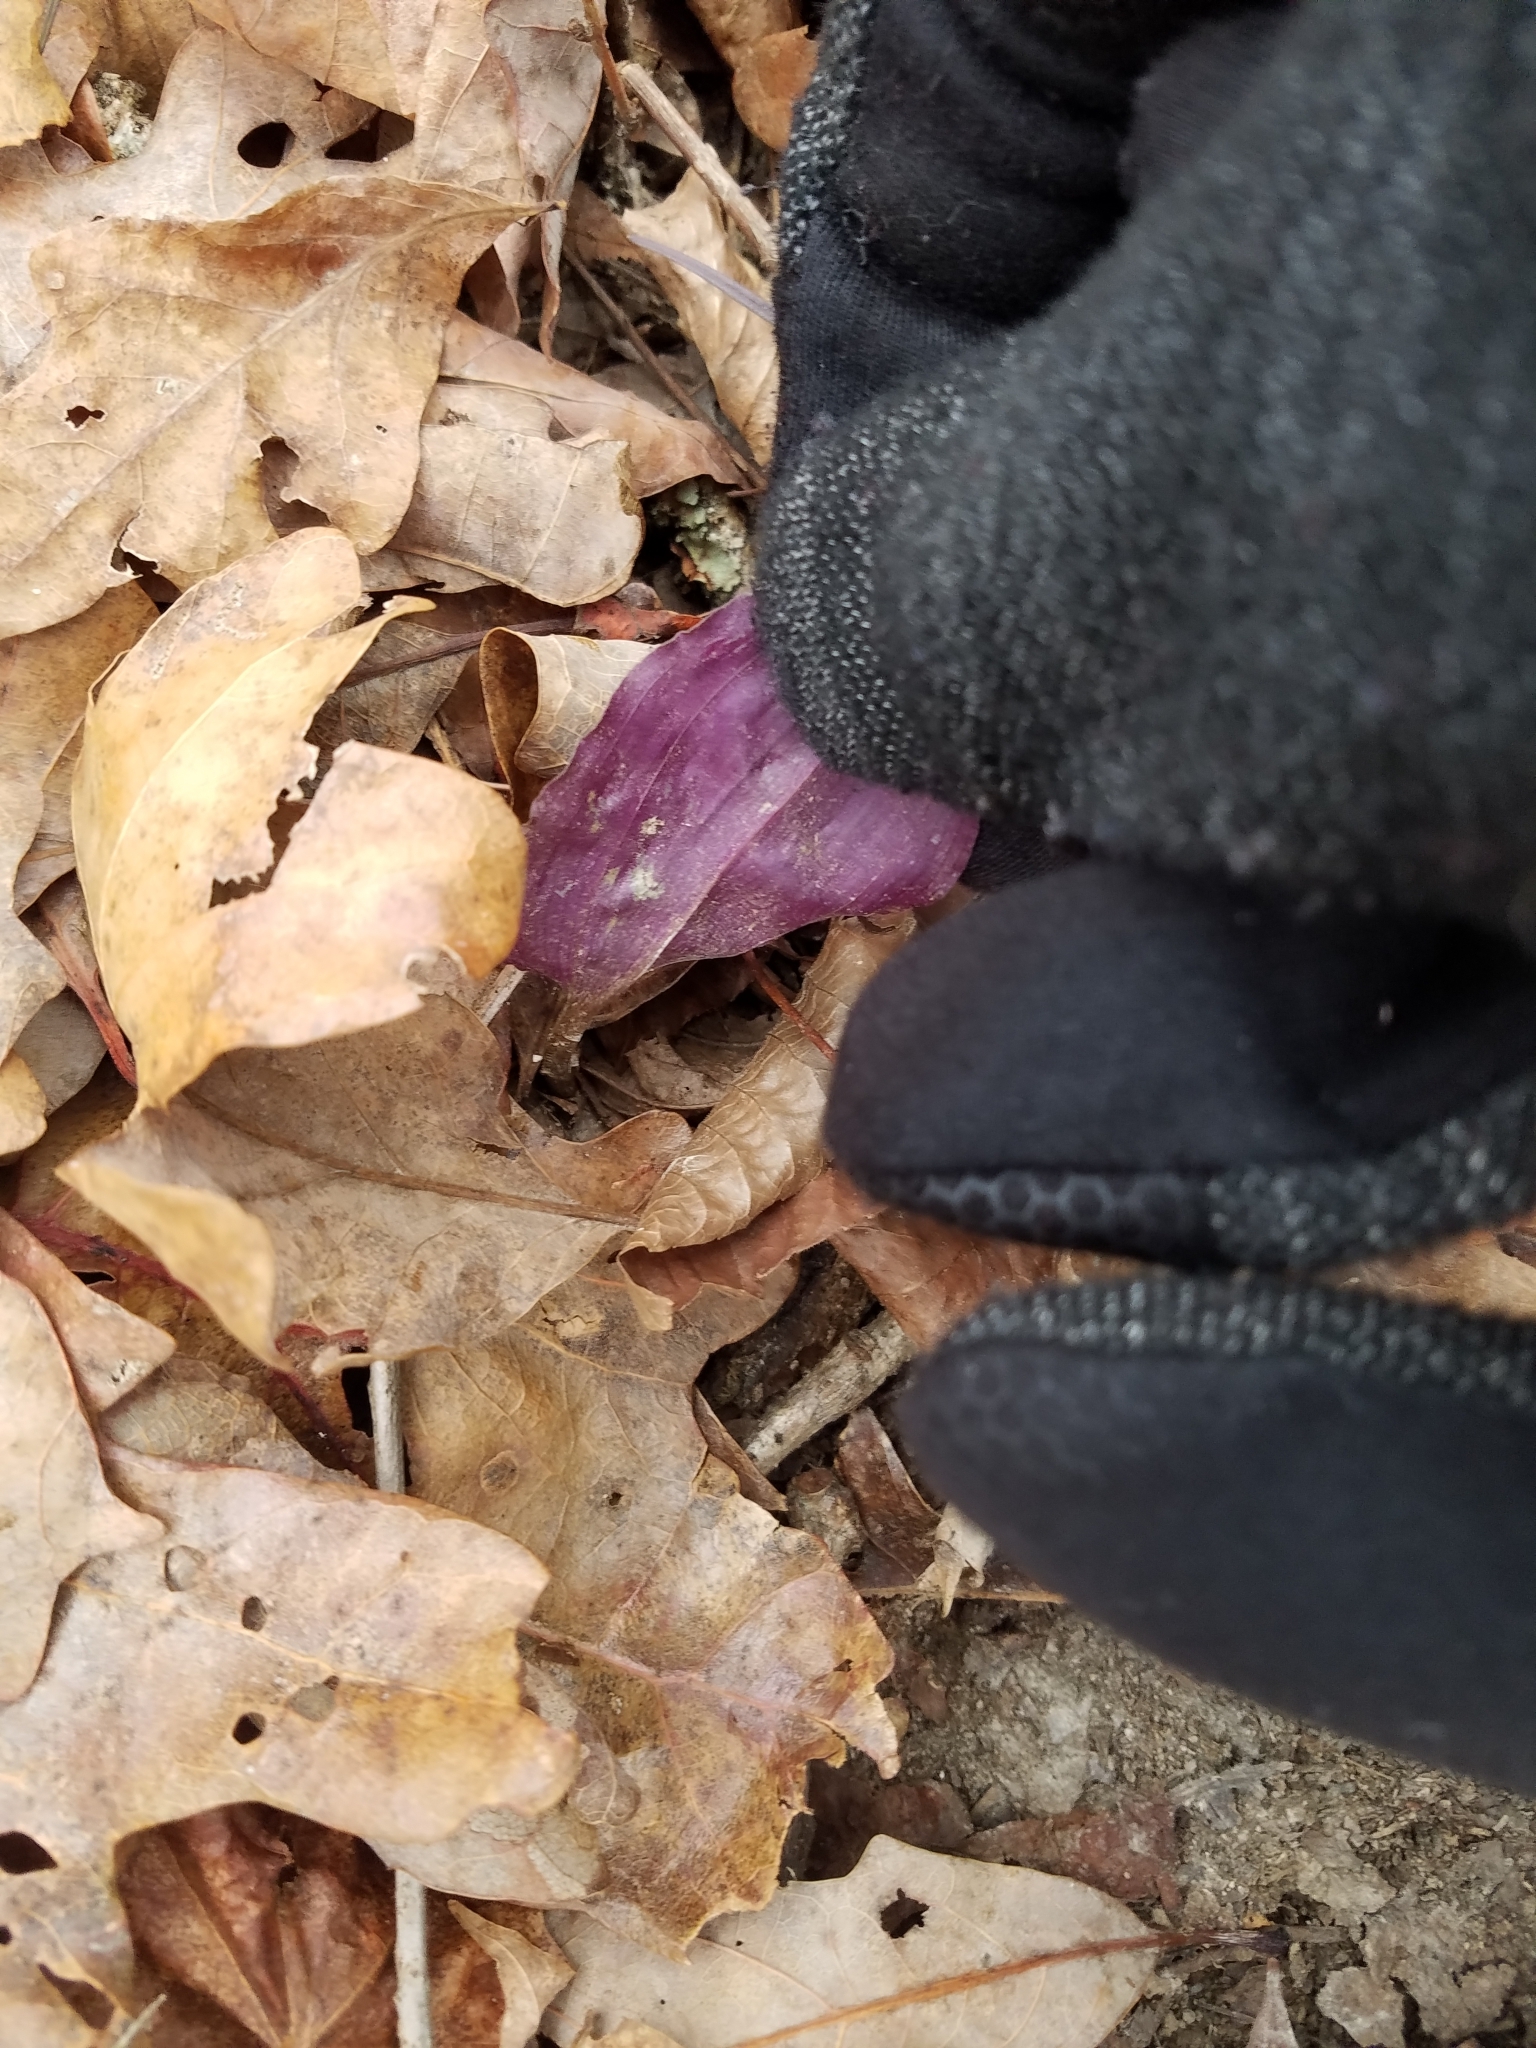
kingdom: Plantae
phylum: Tracheophyta
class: Liliopsida
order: Asparagales
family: Orchidaceae
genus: Tipularia
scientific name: Tipularia discolor
